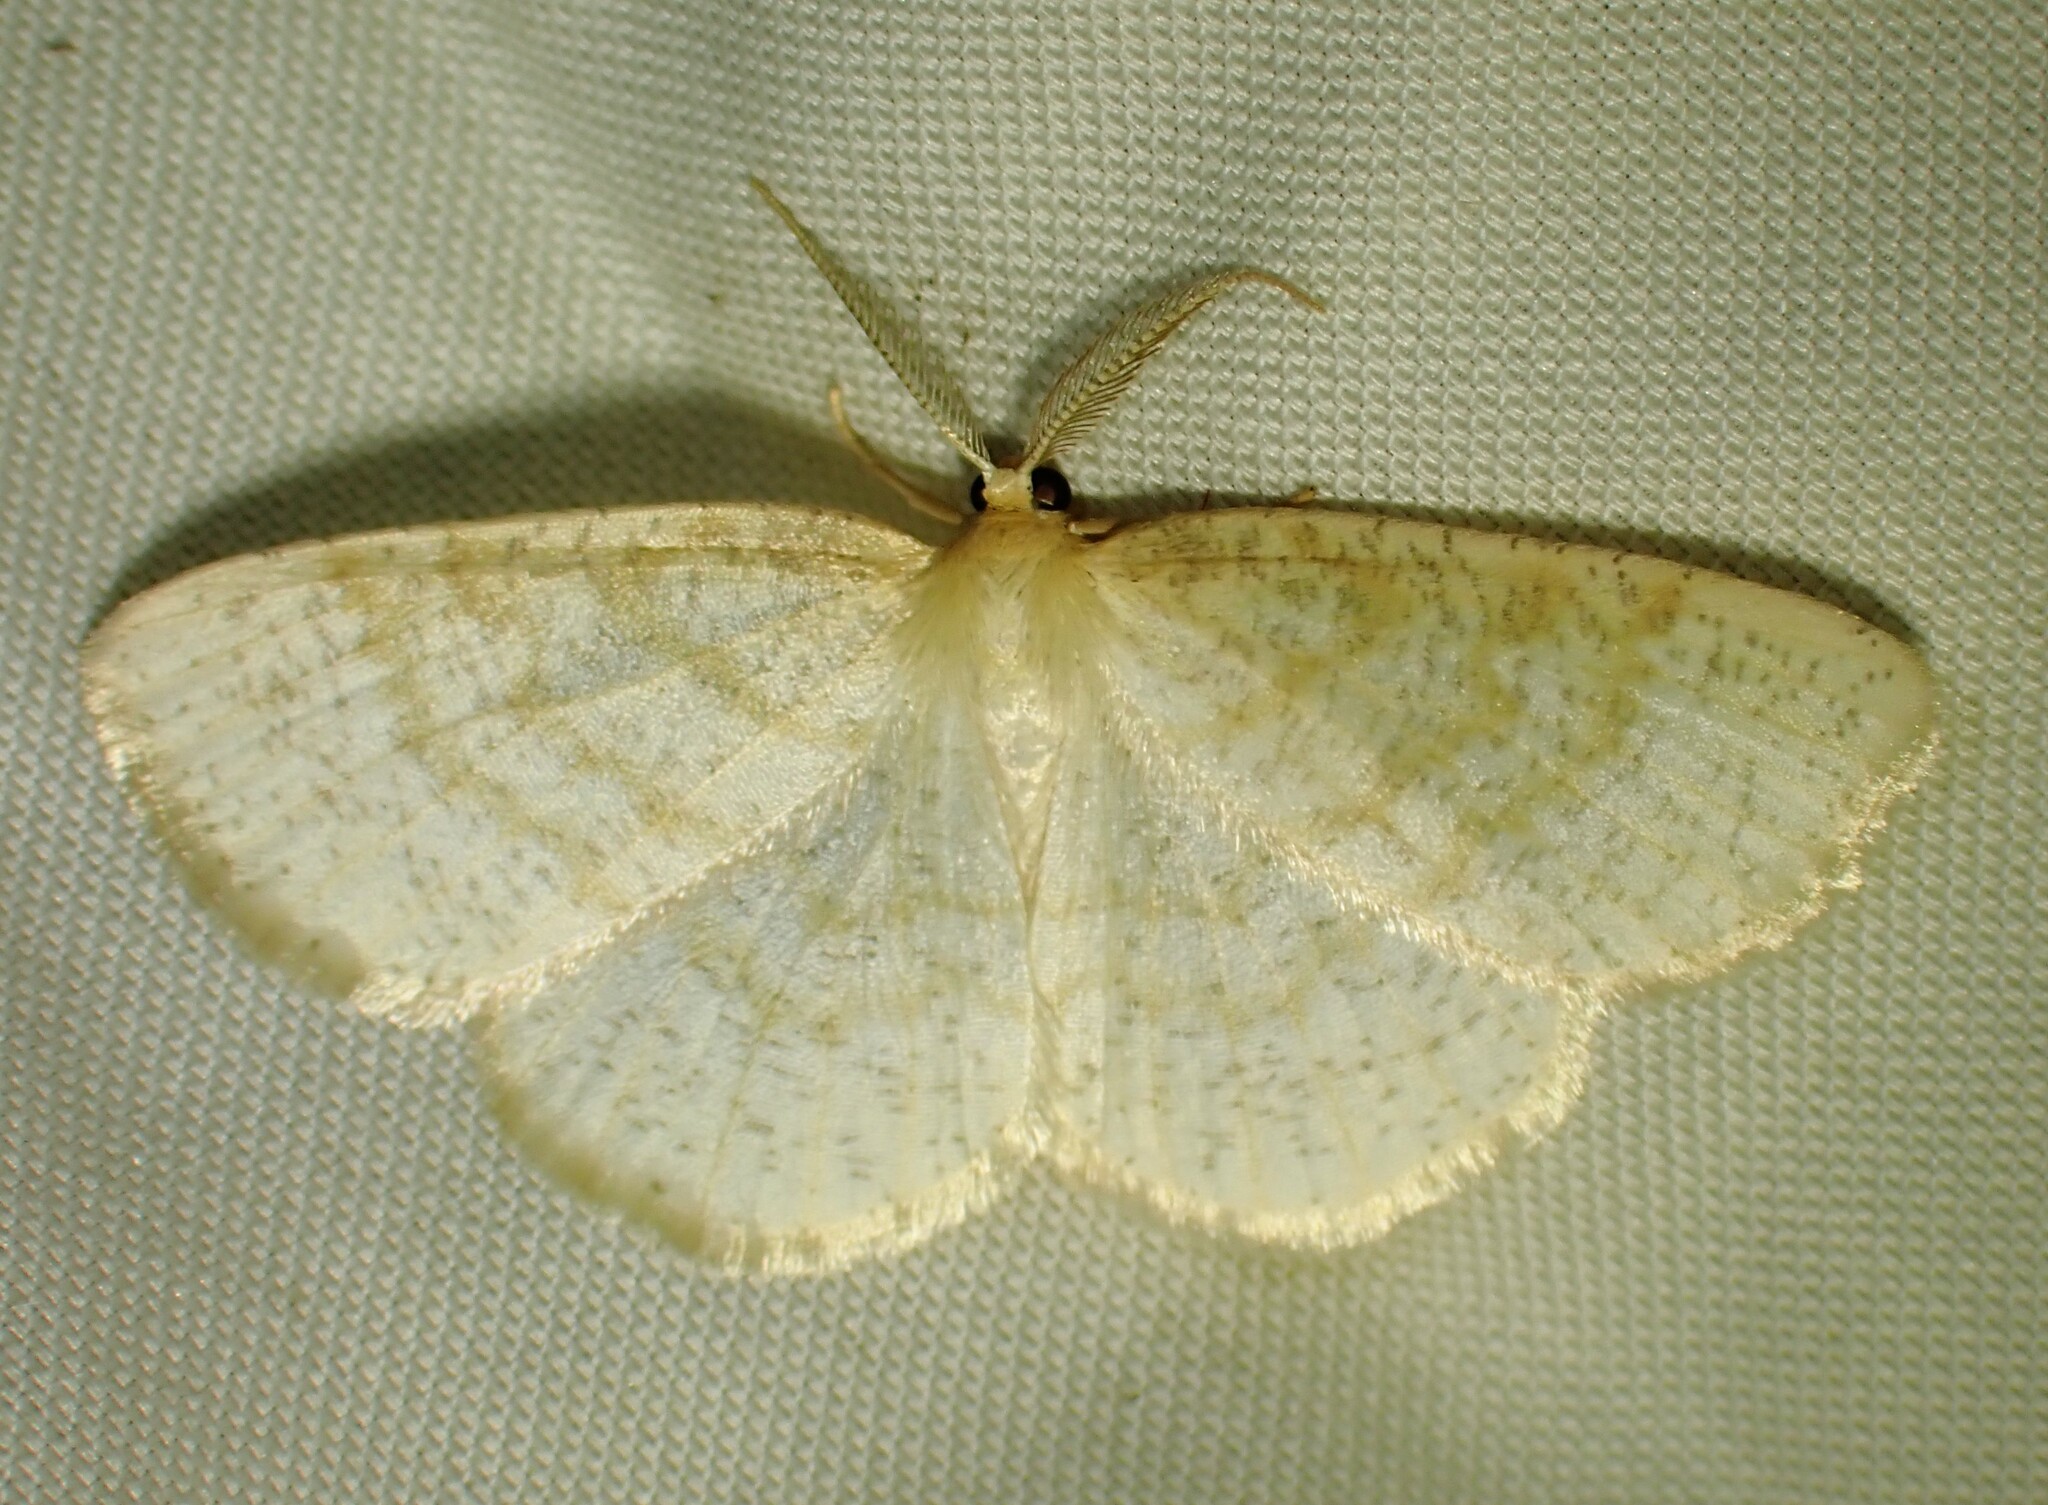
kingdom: Animalia
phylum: Arthropoda
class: Insecta
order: Lepidoptera
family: Geometridae
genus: Cabera
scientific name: Cabera erythemaria
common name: Yellow-dusted cream moth
